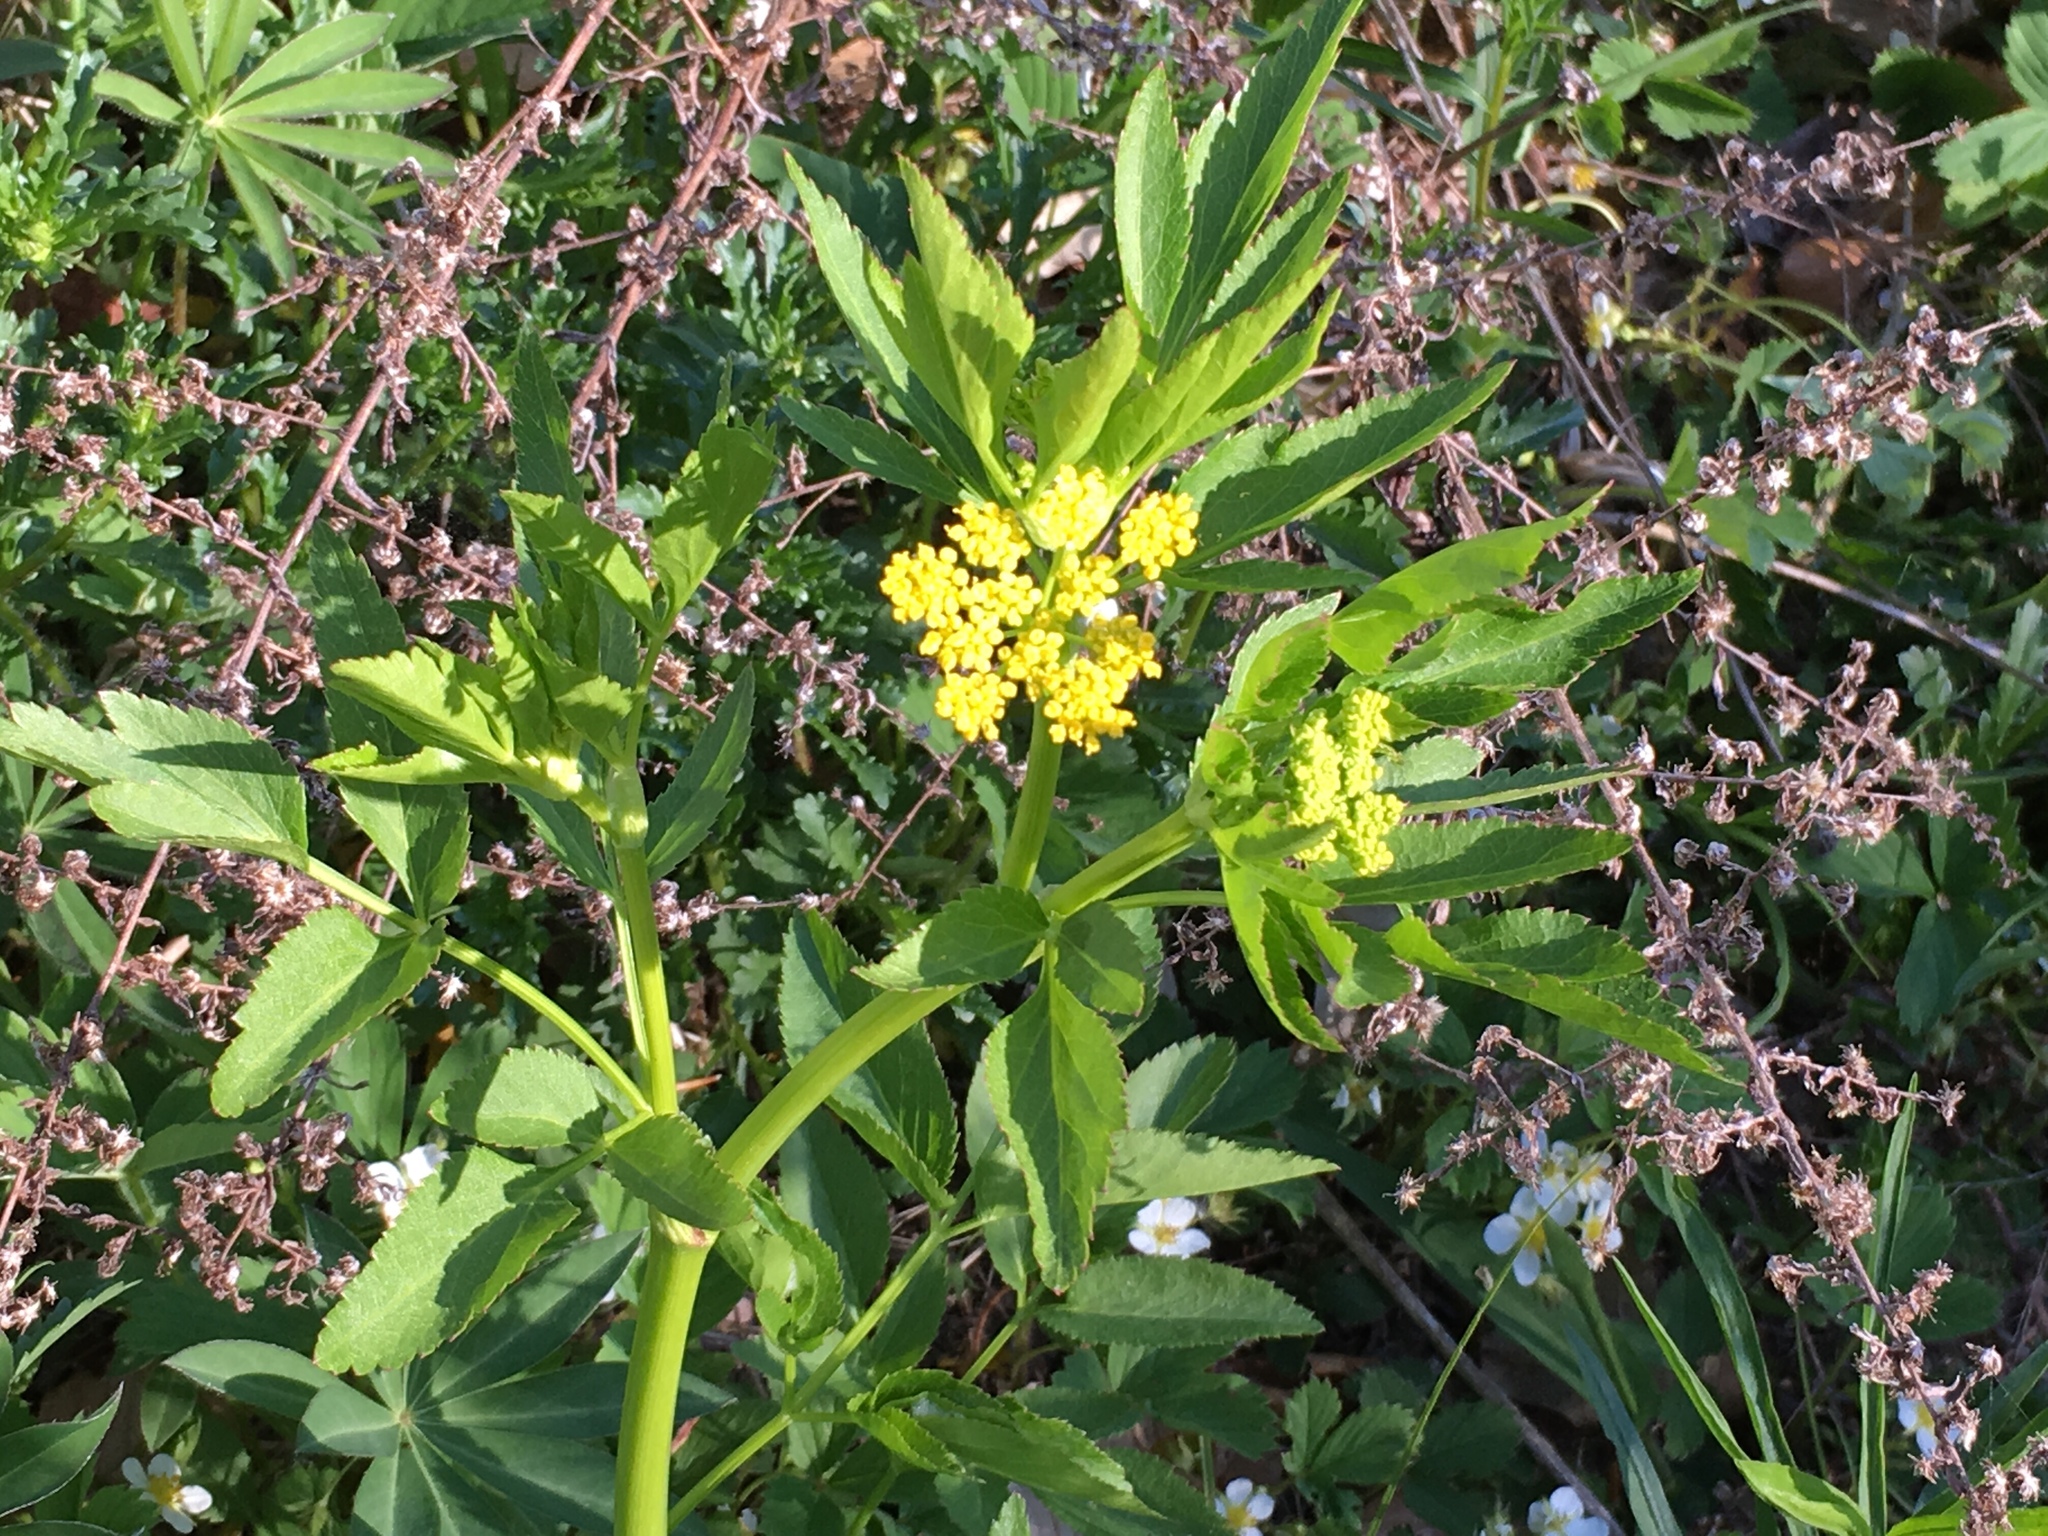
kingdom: Plantae
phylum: Tracheophyta
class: Magnoliopsida
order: Apiales
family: Apiaceae
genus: Zizia
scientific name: Zizia aurea
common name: Golden alexanders
